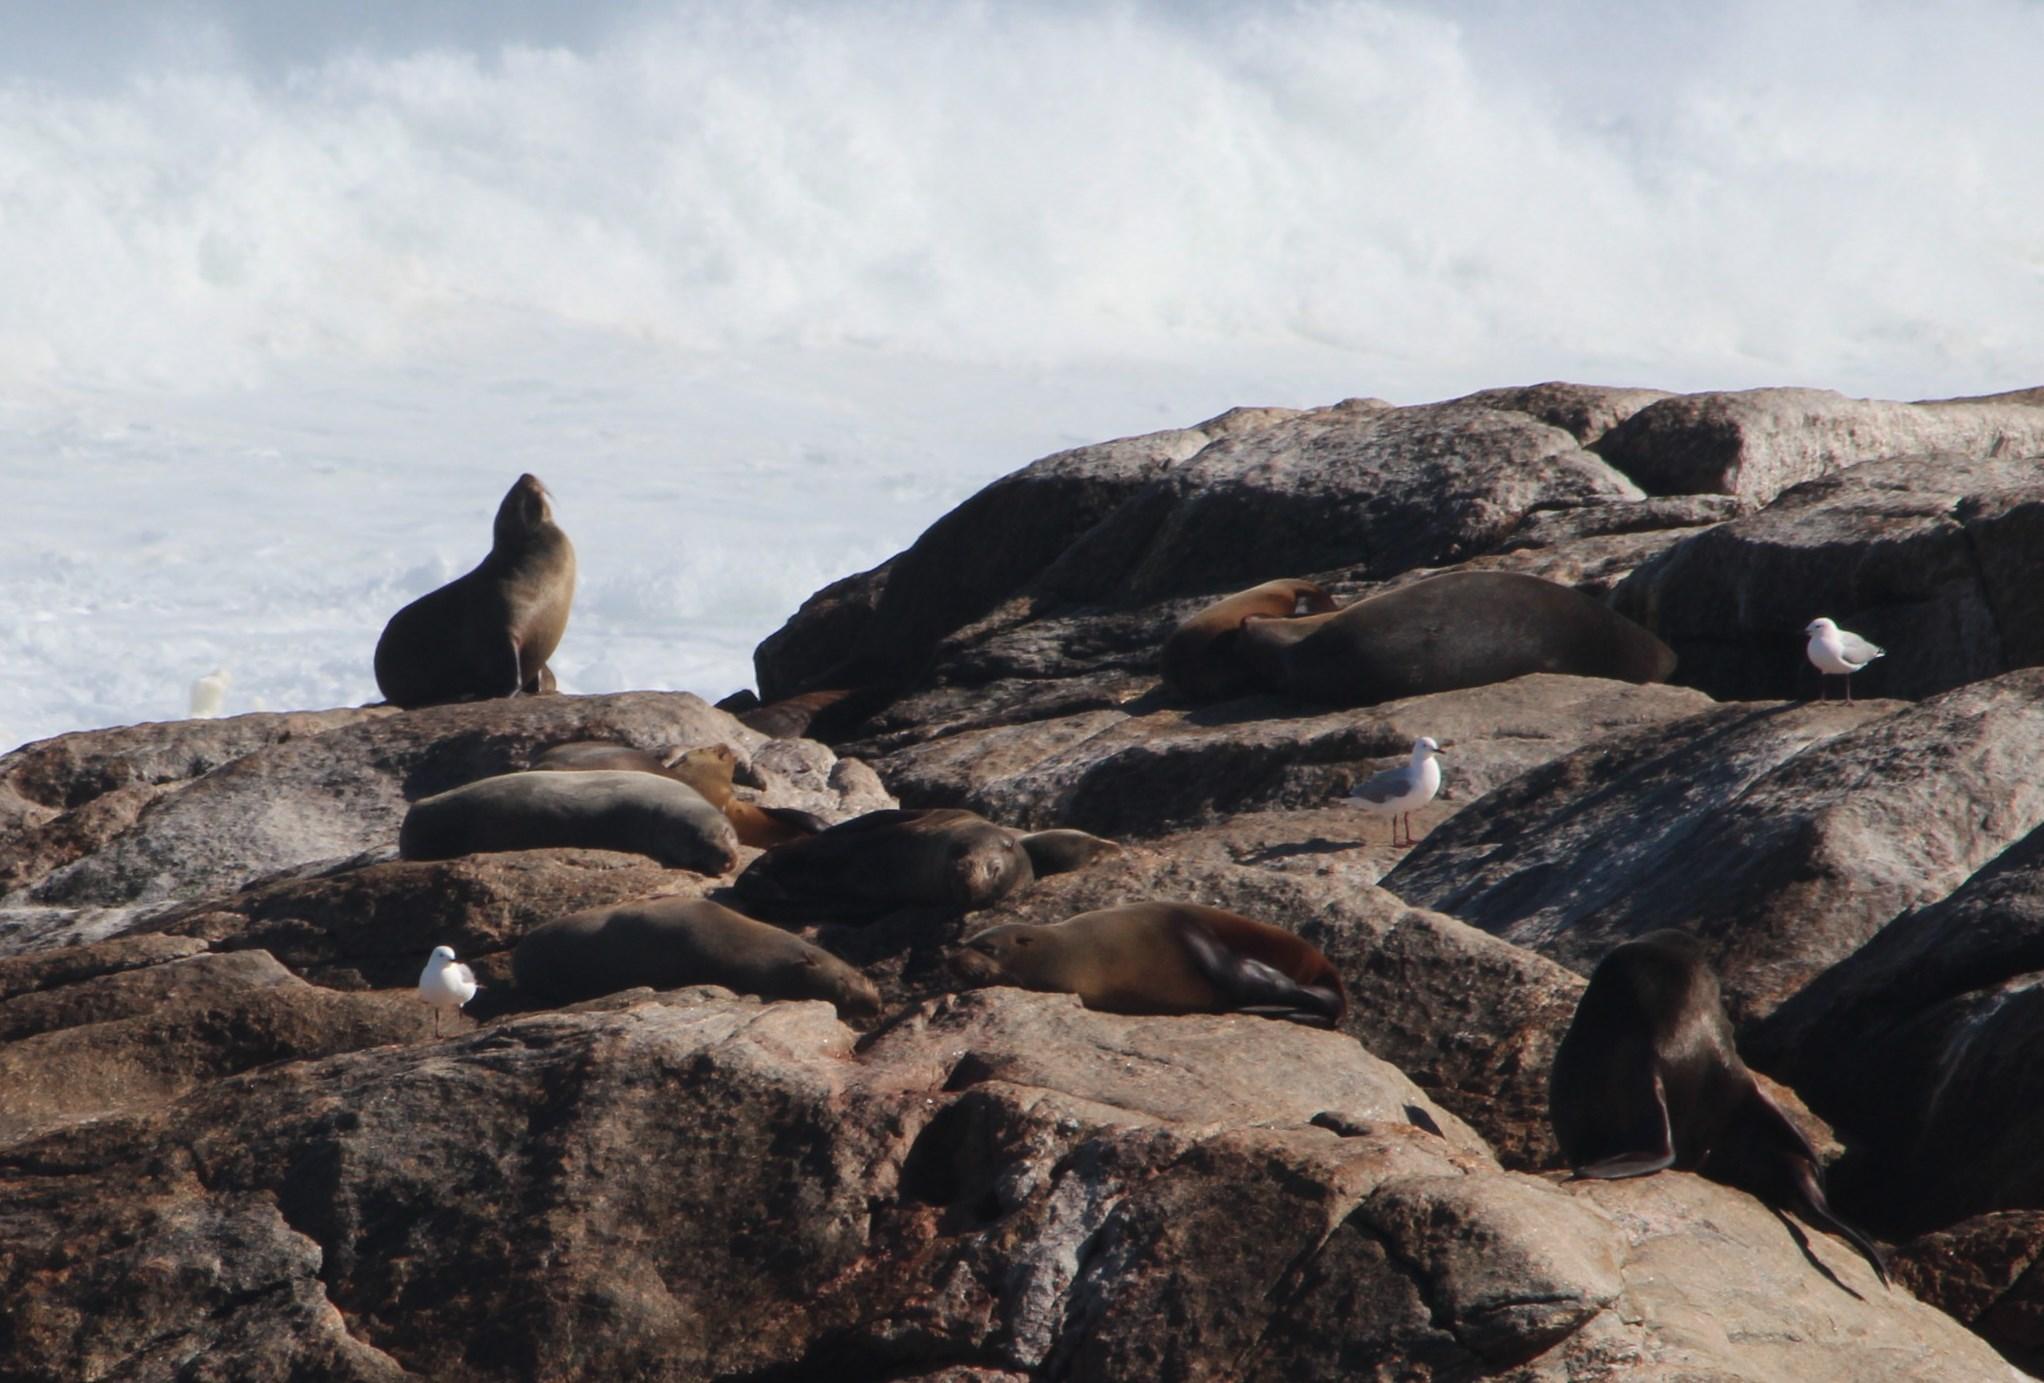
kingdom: Animalia
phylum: Chordata
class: Aves
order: Charadriiformes
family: Laridae
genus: Chroicocephalus
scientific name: Chroicocephalus hartlaubii
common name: Hartlaub's gull
